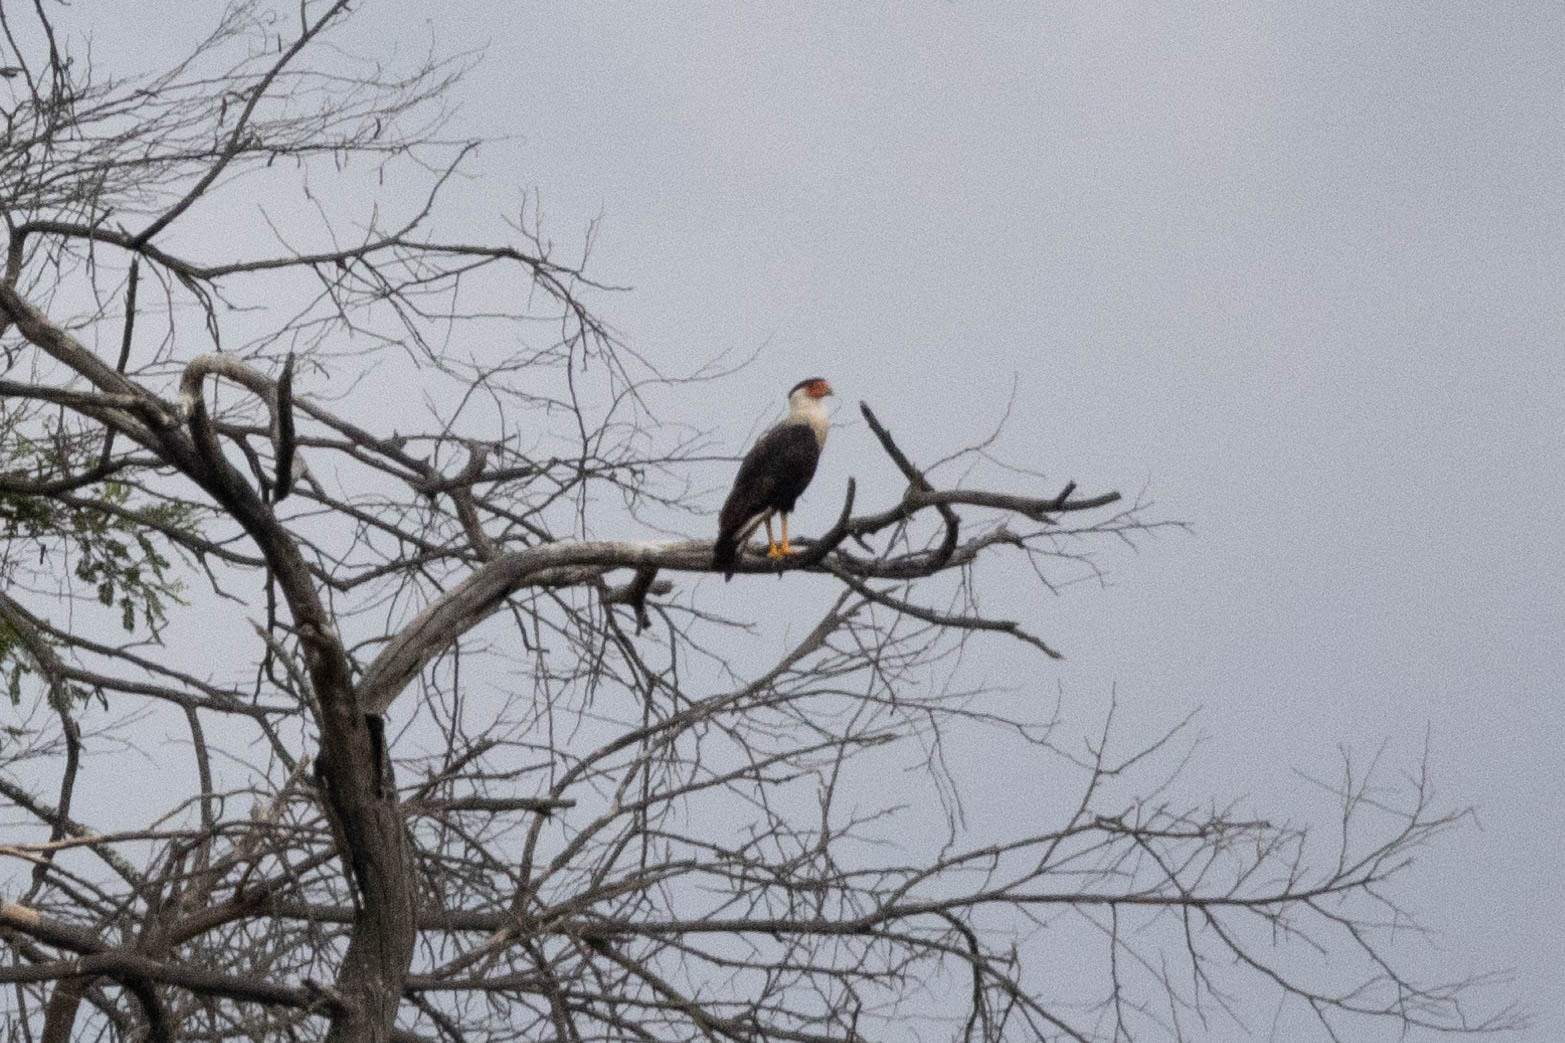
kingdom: Animalia
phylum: Chordata
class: Aves
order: Falconiformes
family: Falconidae
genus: Caracara
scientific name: Caracara plancus
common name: Southern caracara
